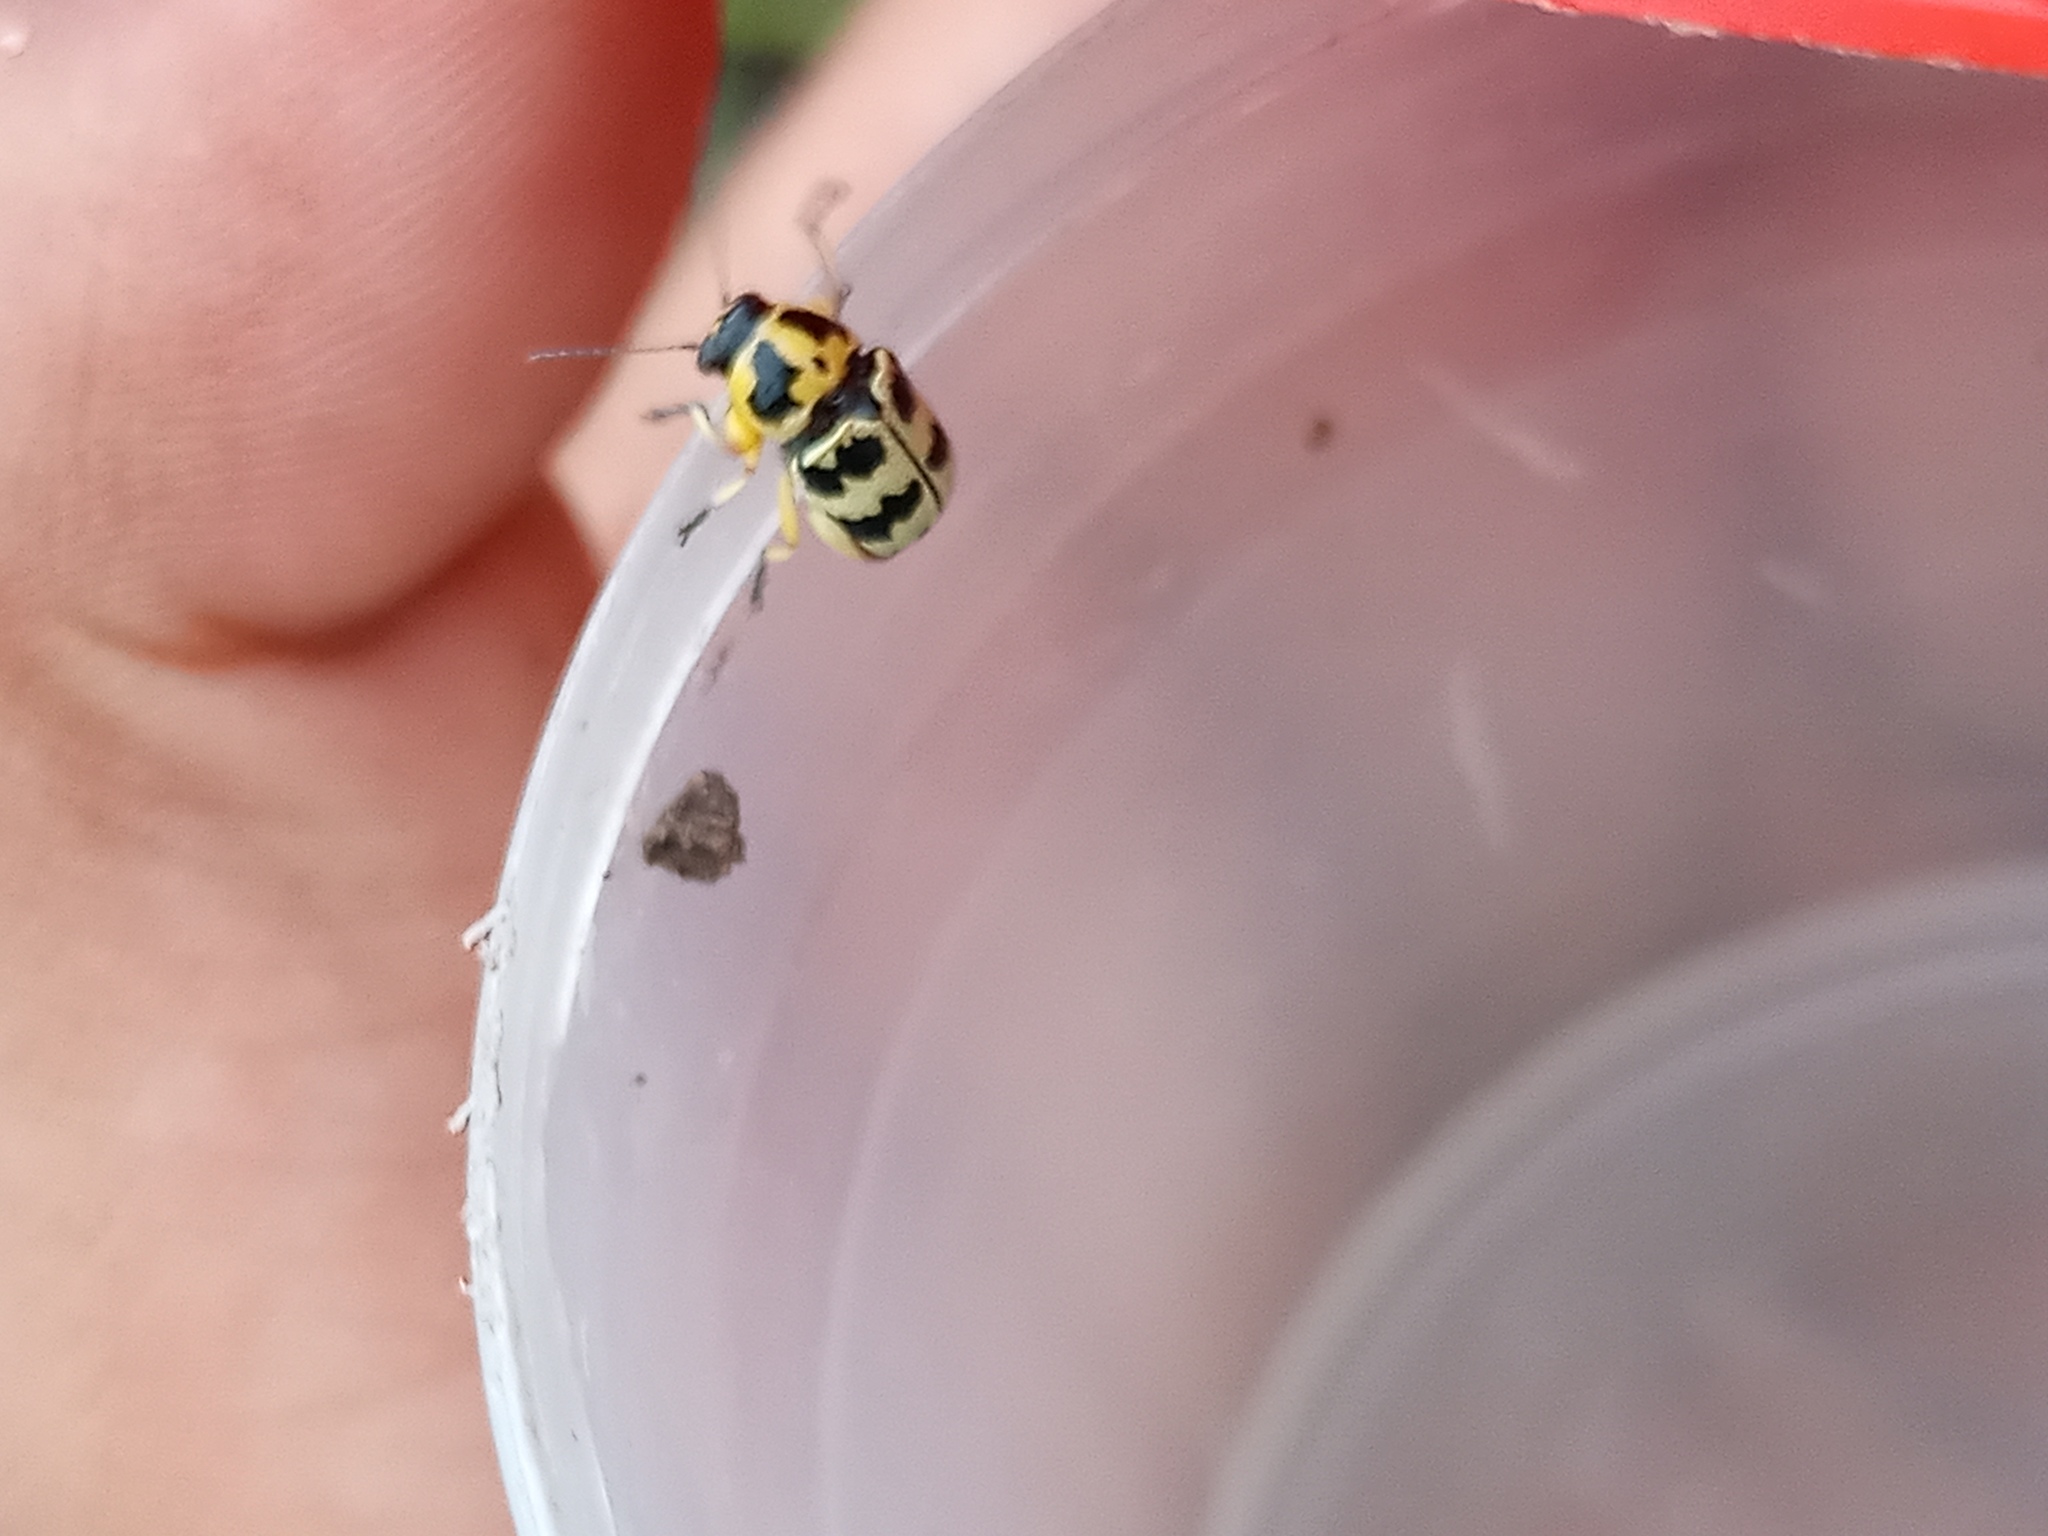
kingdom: Animalia
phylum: Arthropoda
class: Insecta
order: Coleoptera
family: Chrysomelidae
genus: Metallactus
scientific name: Metallactus rileyi
